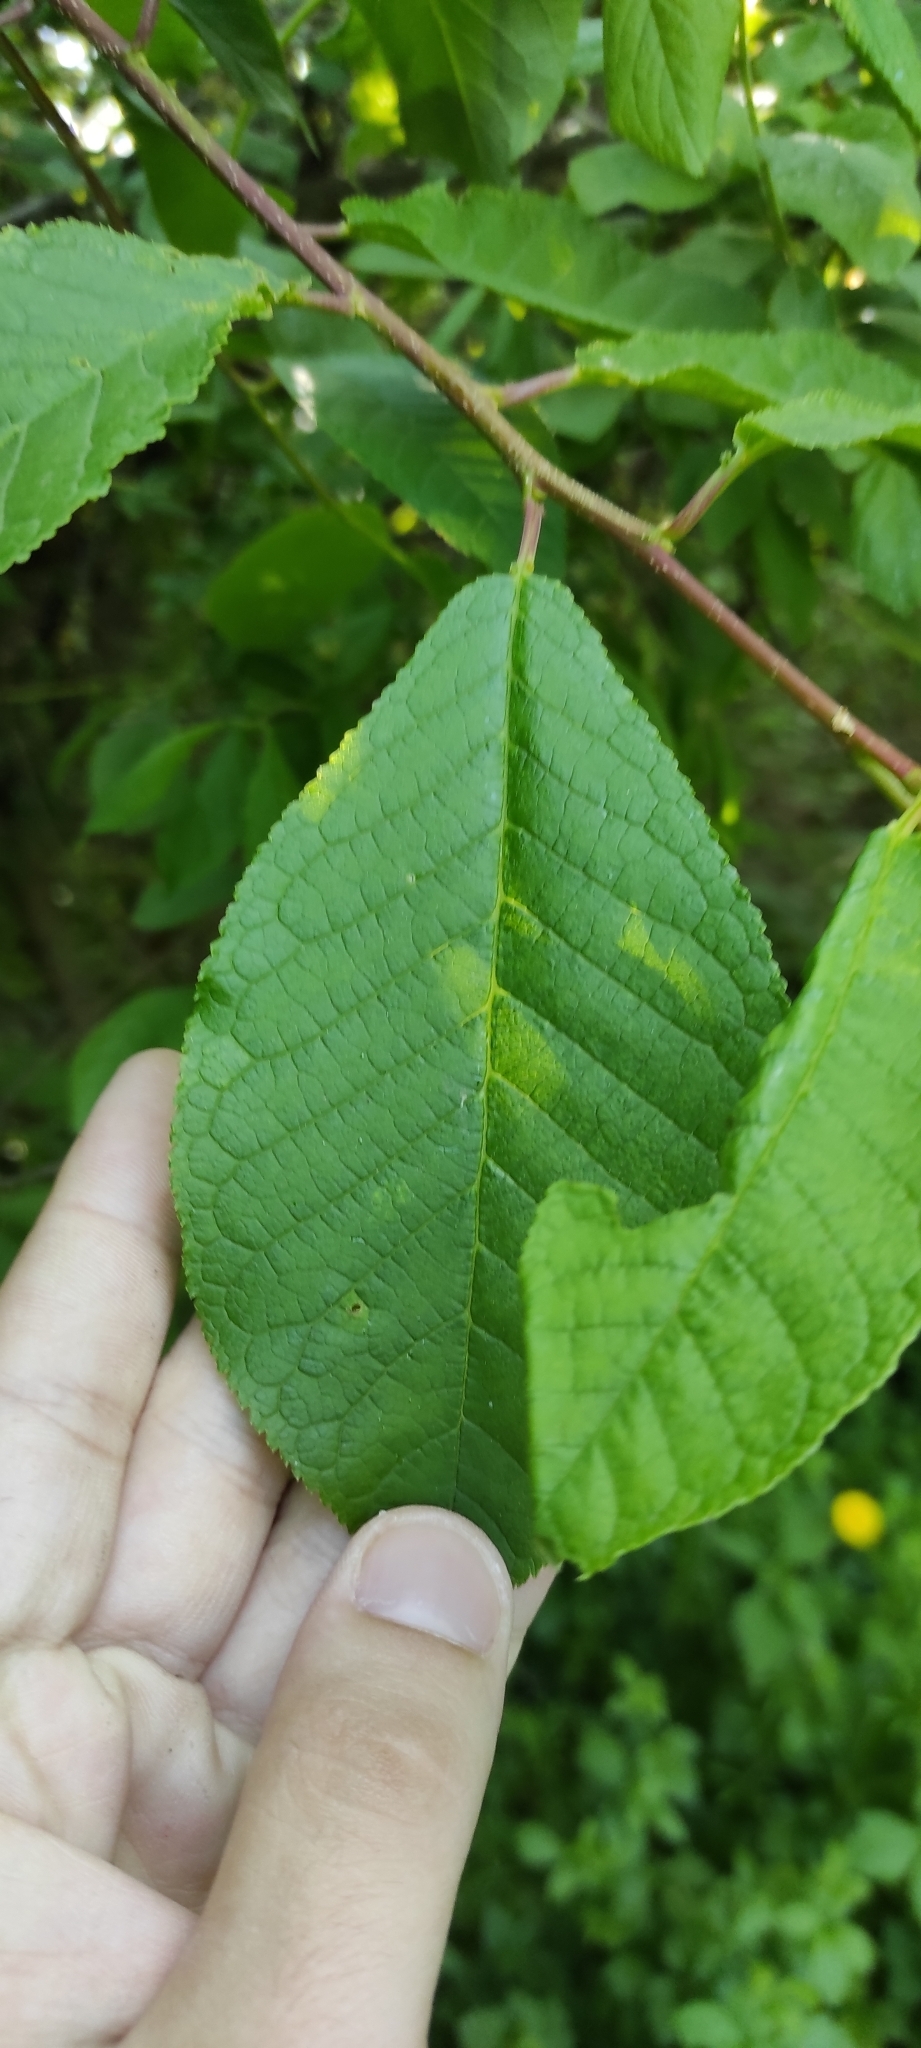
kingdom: Plantae
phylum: Tracheophyta
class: Magnoliopsida
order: Rosales
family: Rosaceae
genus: Prunus
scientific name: Prunus padus
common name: Bird cherry
